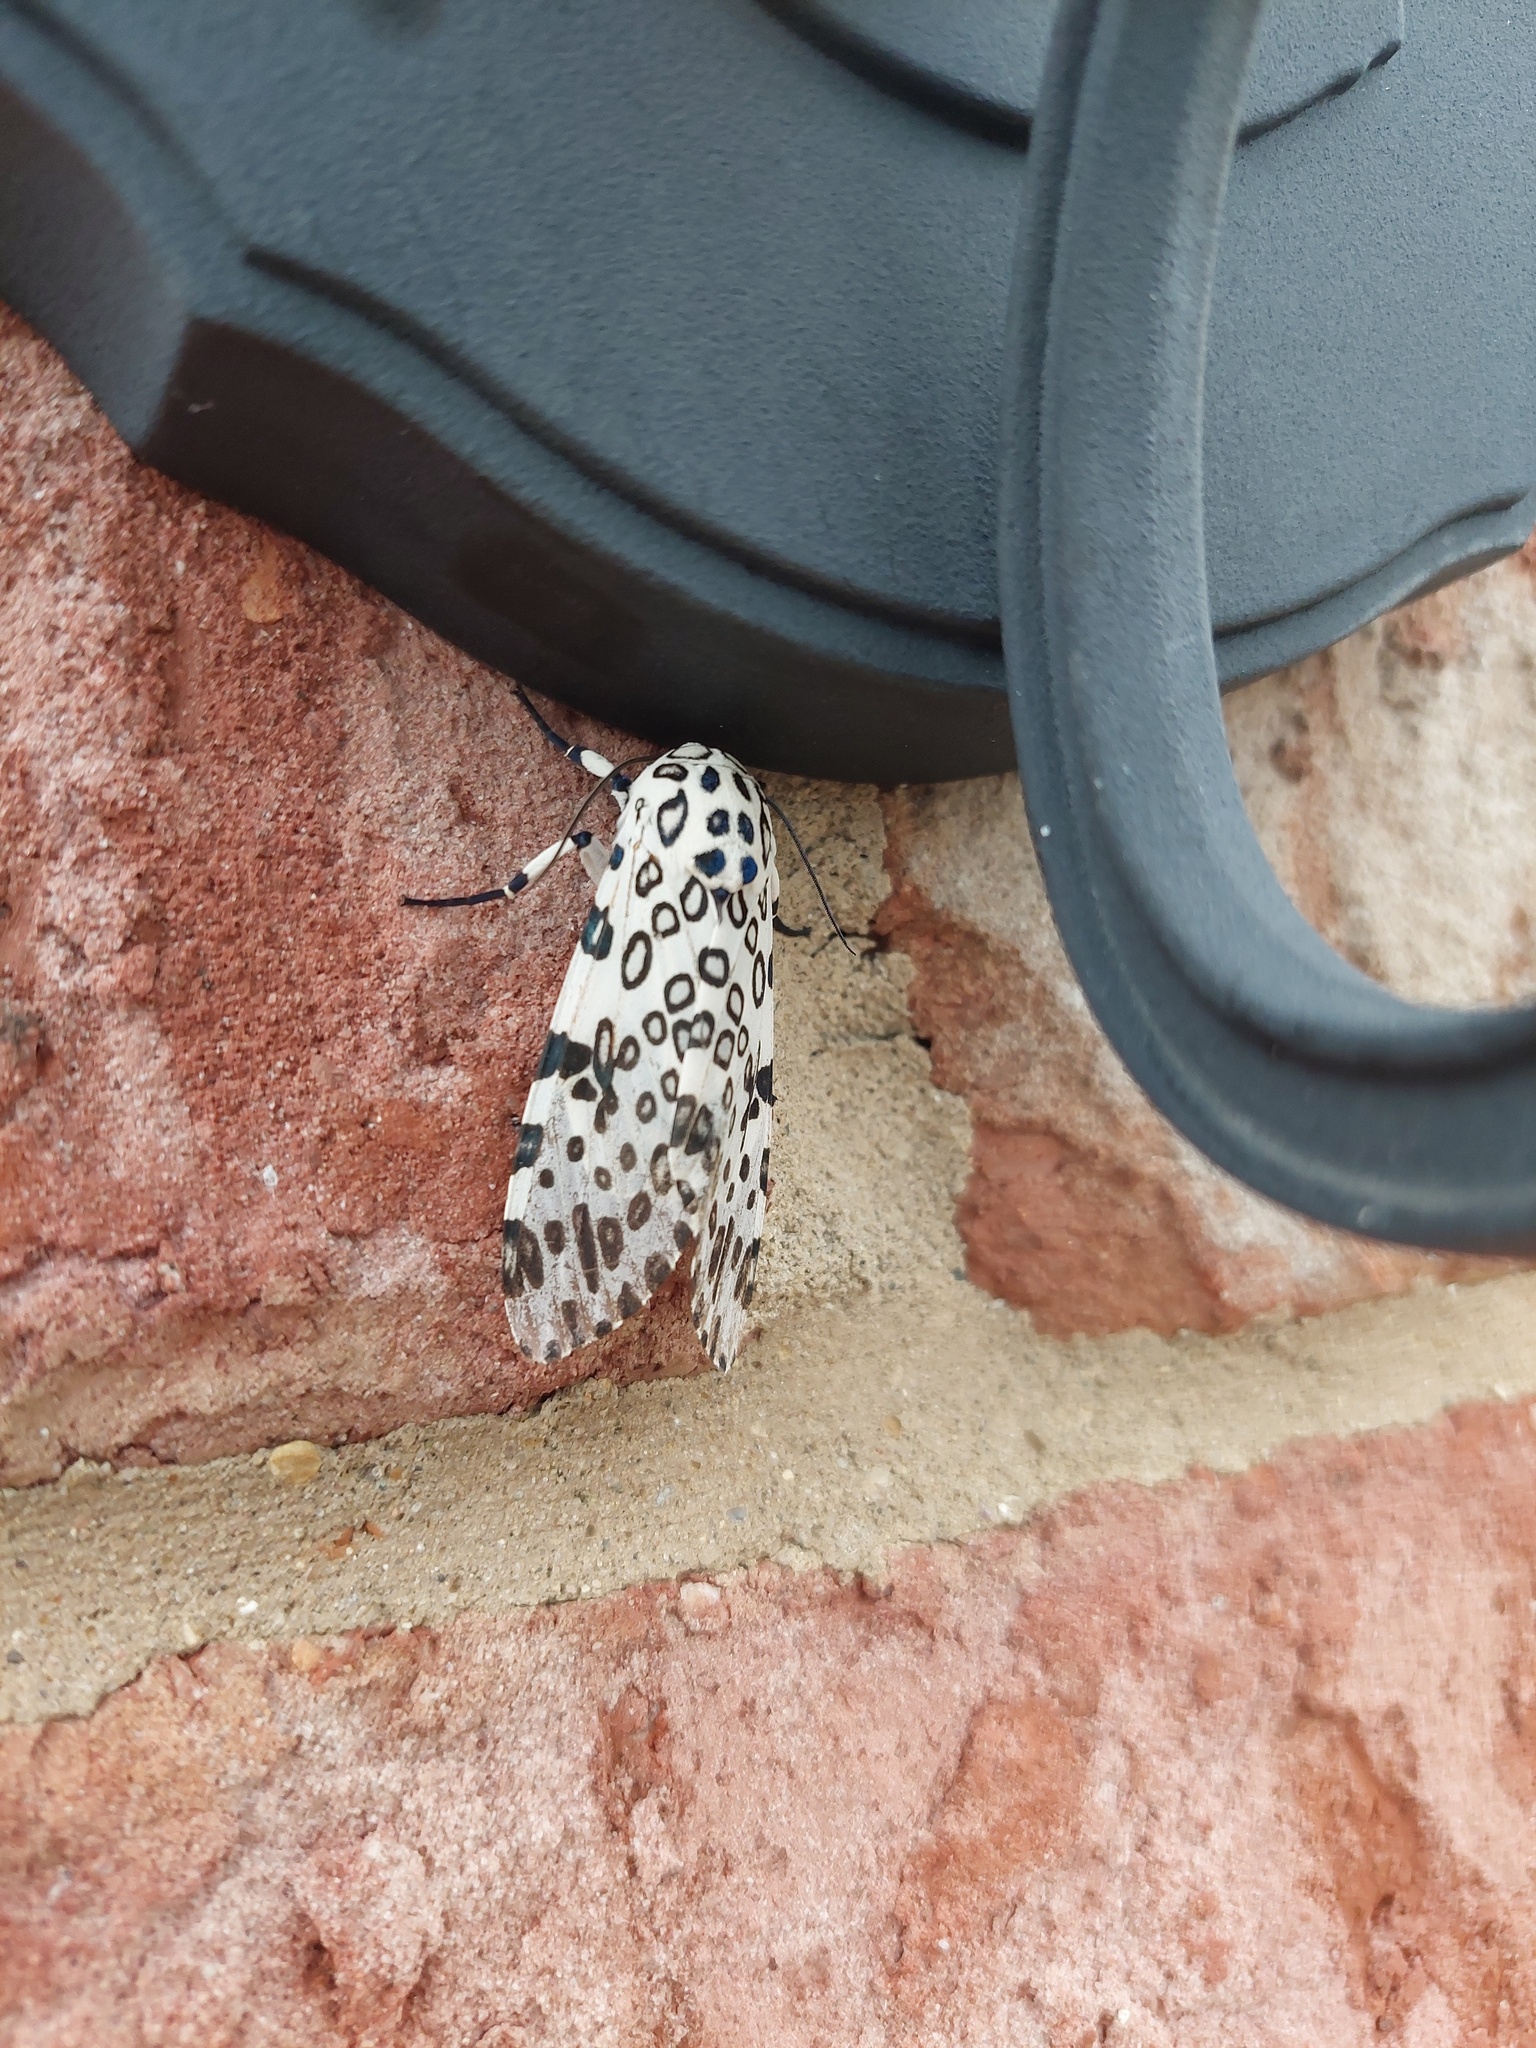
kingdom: Animalia
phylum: Arthropoda
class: Insecta
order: Lepidoptera
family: Erebidae
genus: Hypercompe
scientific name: Hypercompe scribonia
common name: Giant leopard moth
